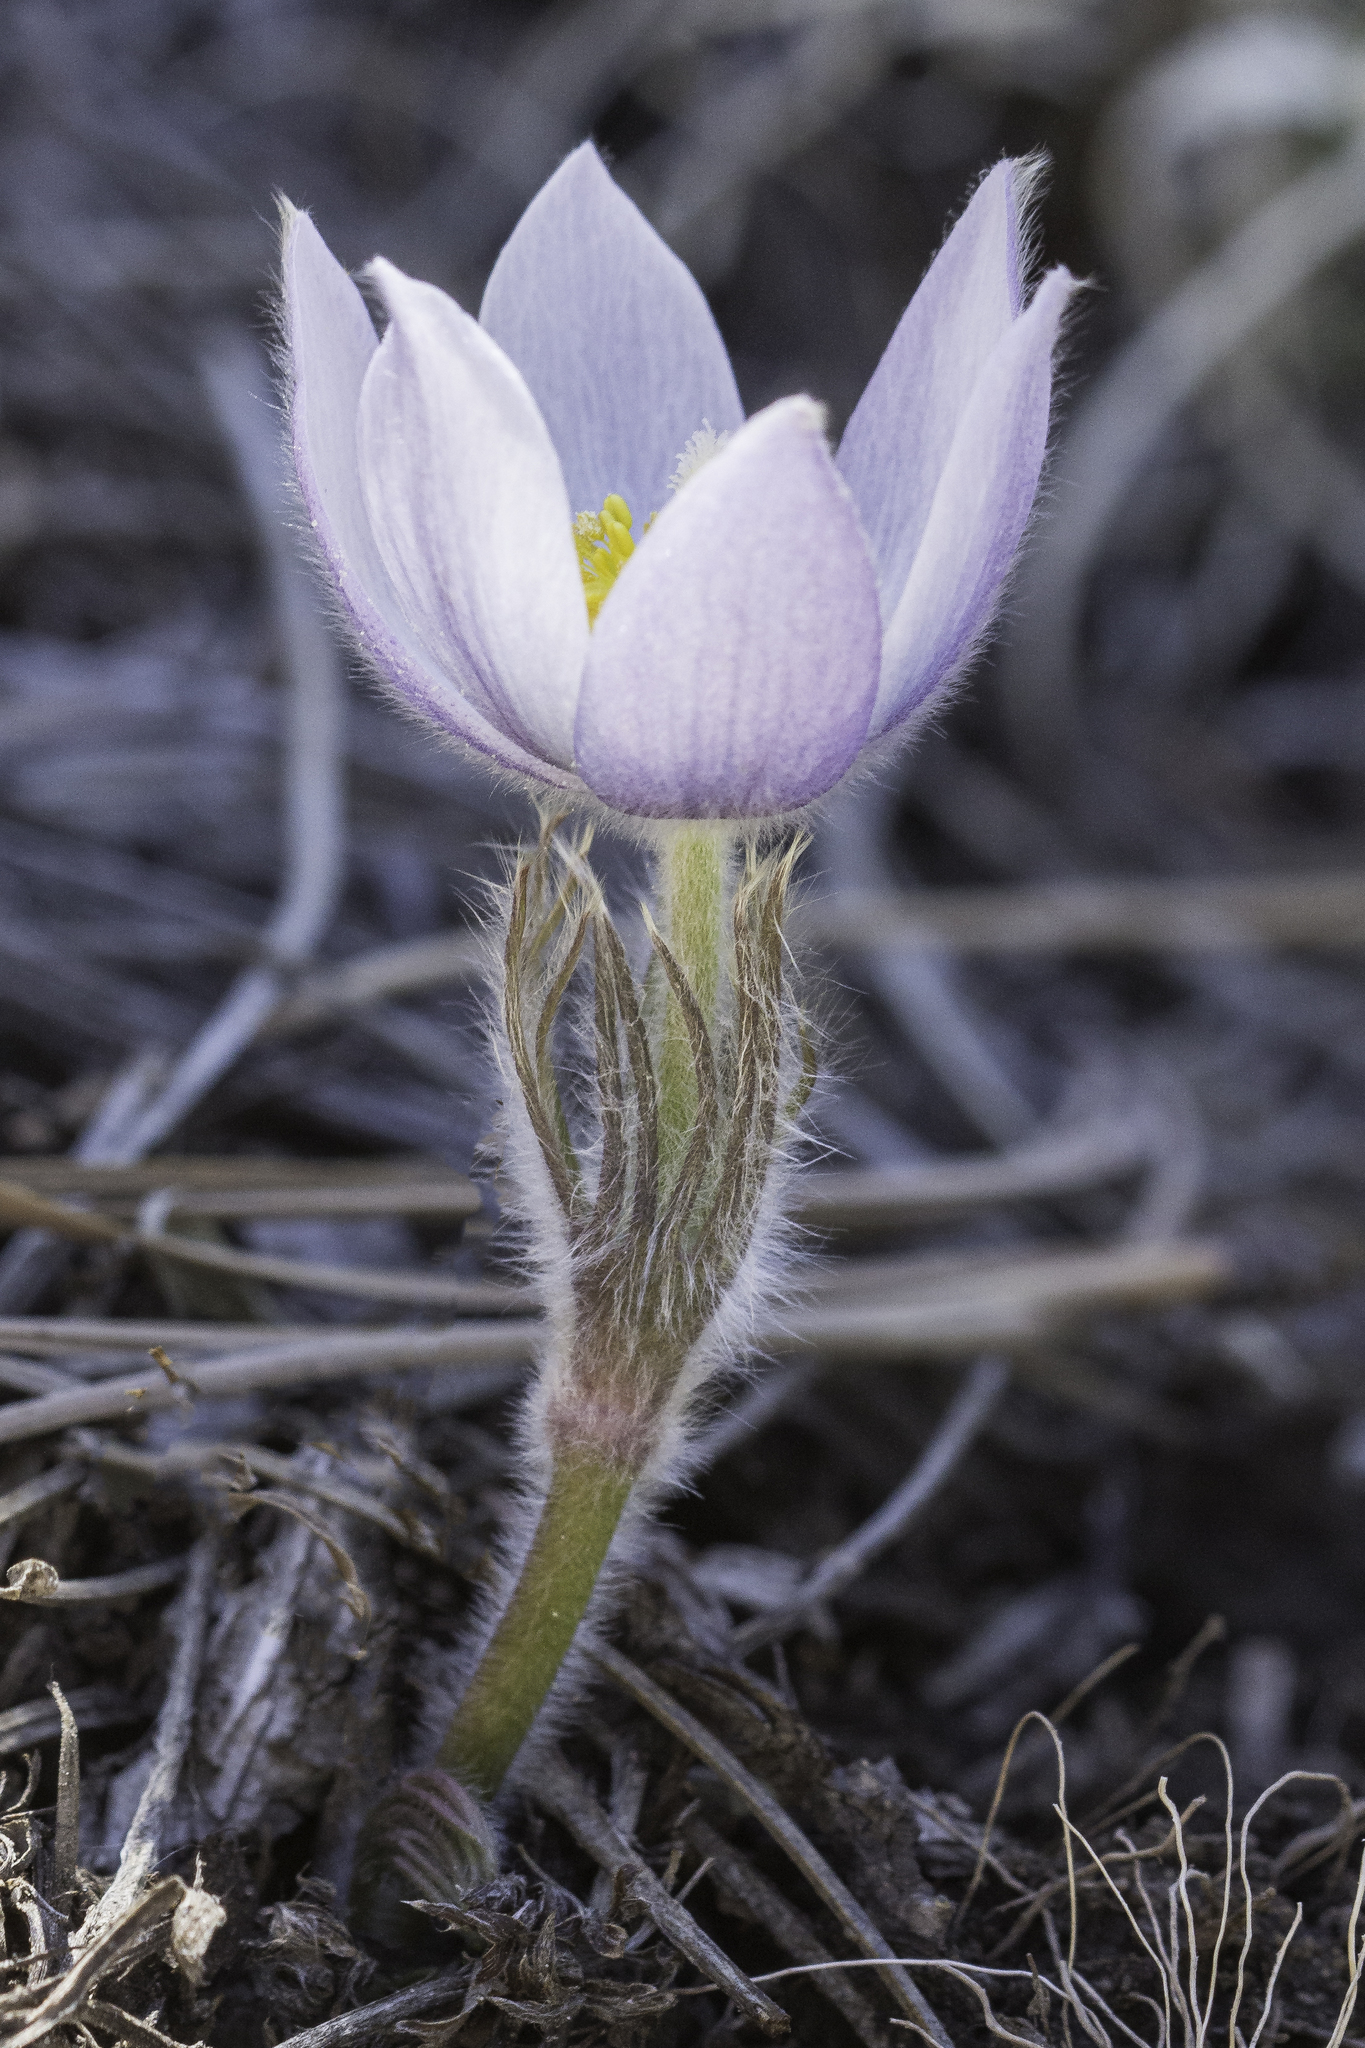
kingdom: Plantae
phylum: Tracheophyta
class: Magnoliopsida
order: Ranunculales
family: Ranunculaceae
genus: Pulsatilla
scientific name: Pulsatilla nuttalliana
